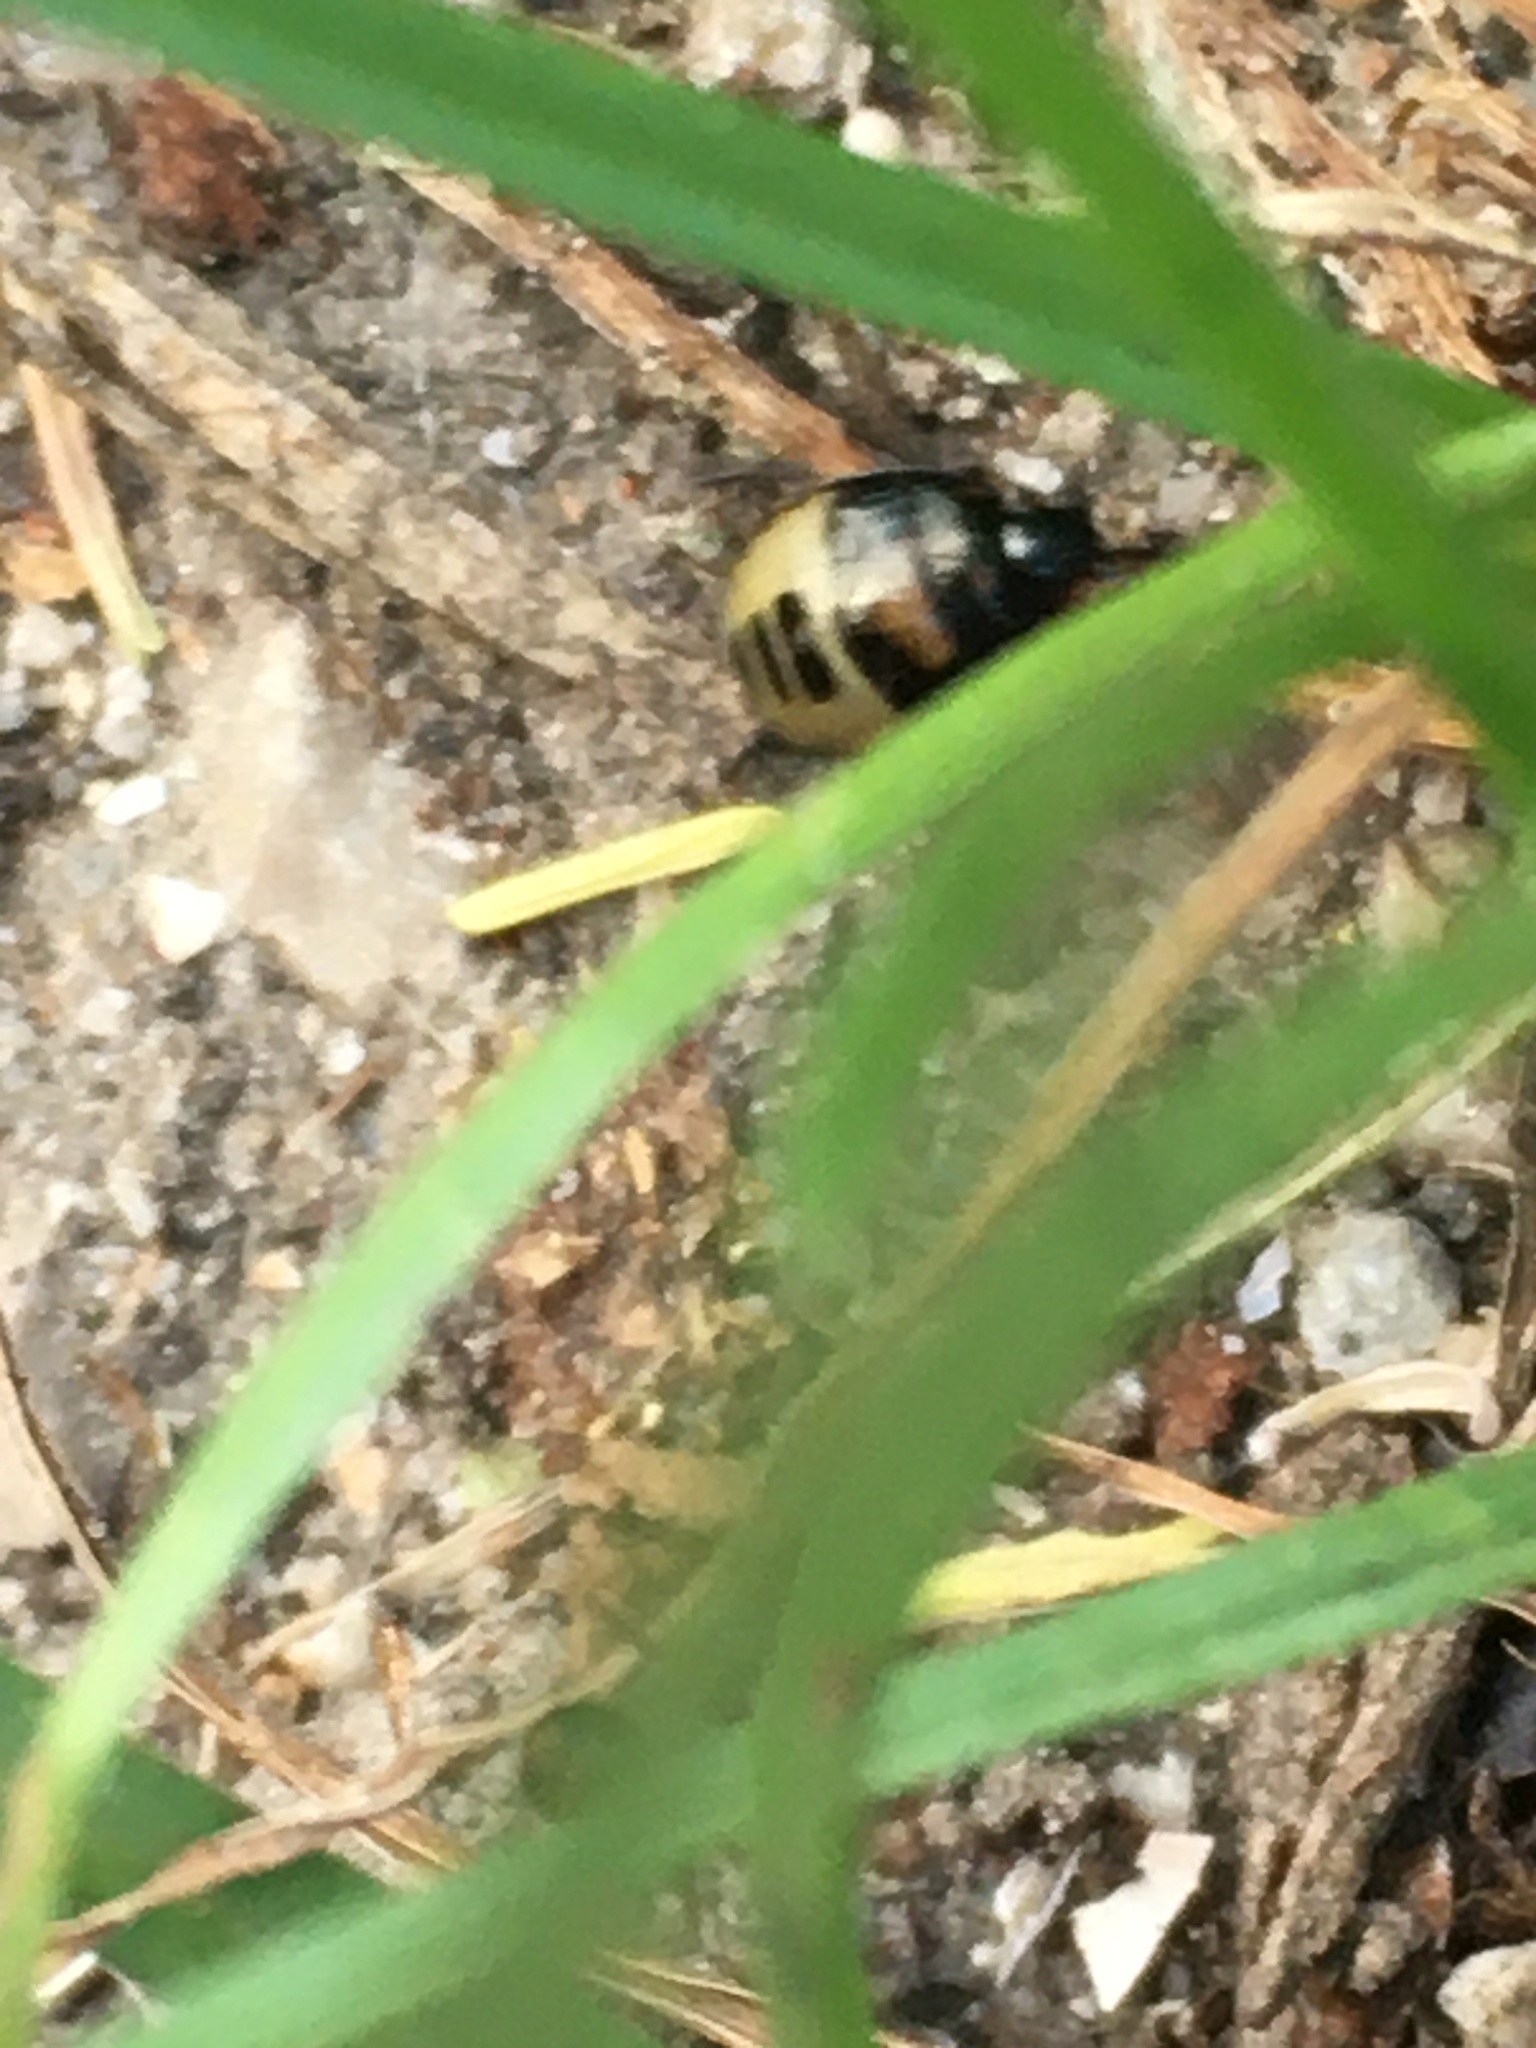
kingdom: Animalia
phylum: Arthropoda
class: Insecta
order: Hemiptera
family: Cydnidae
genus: Tritomegas
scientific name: Tritomegas bicolor
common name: Pied shieldbug
